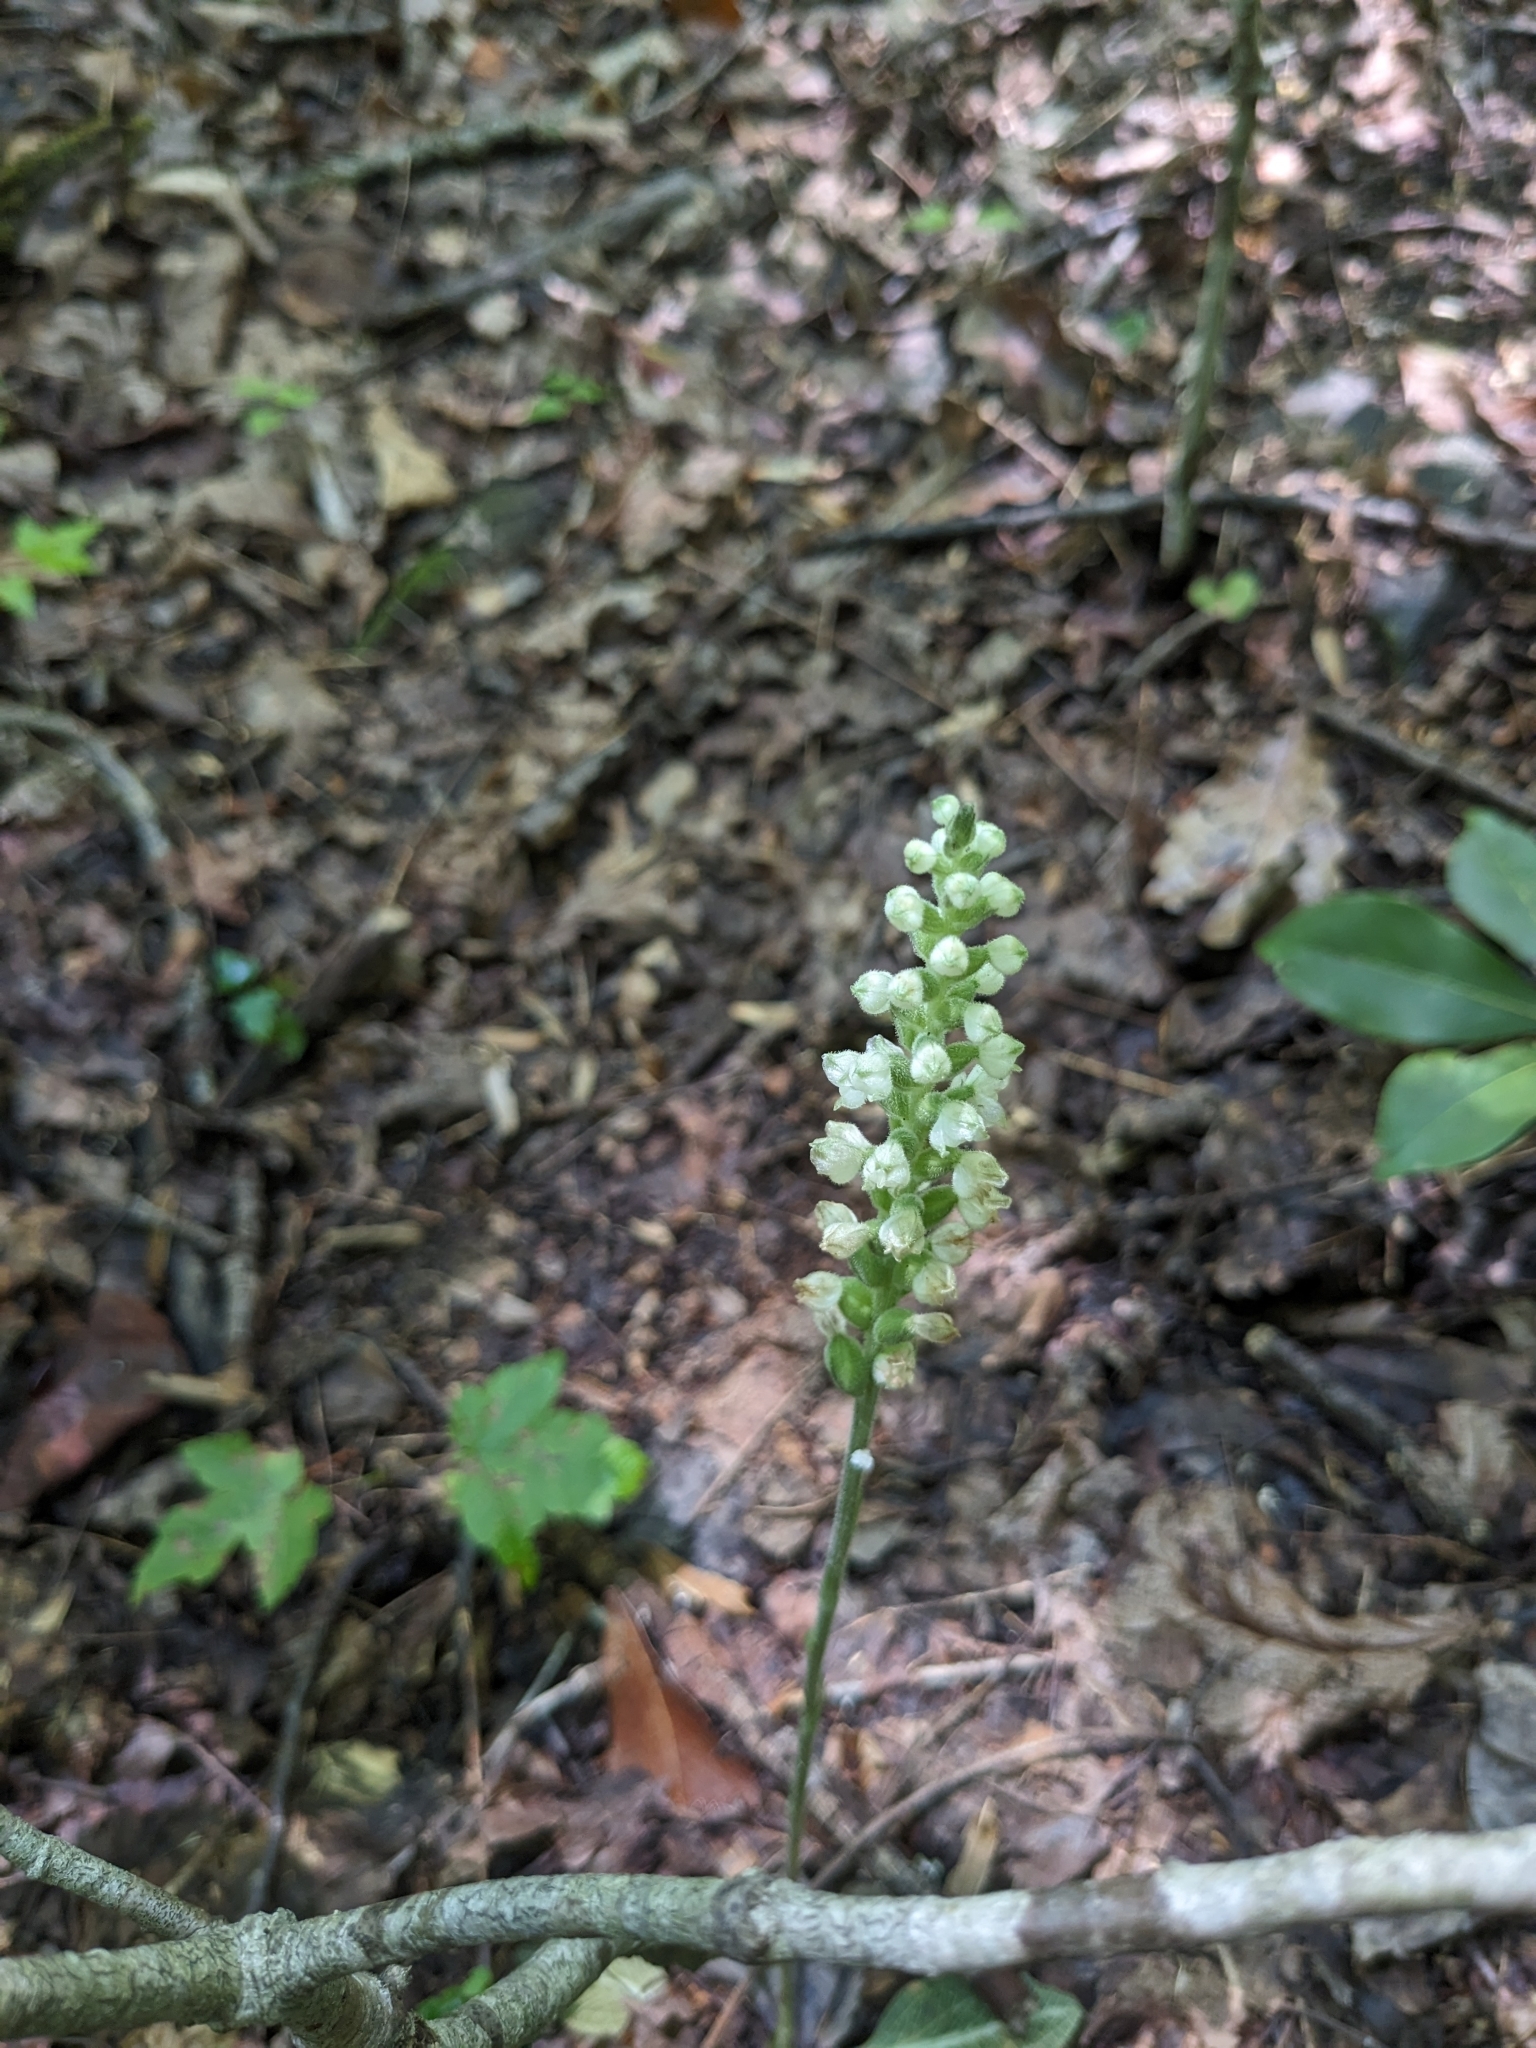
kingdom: Plantae
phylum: Tracheophyta
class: Liliopsida
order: Asparagales
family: Orchidaceae
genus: Goodyera
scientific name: Goodyera pubescens
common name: Downy rattlesnake-plantain
